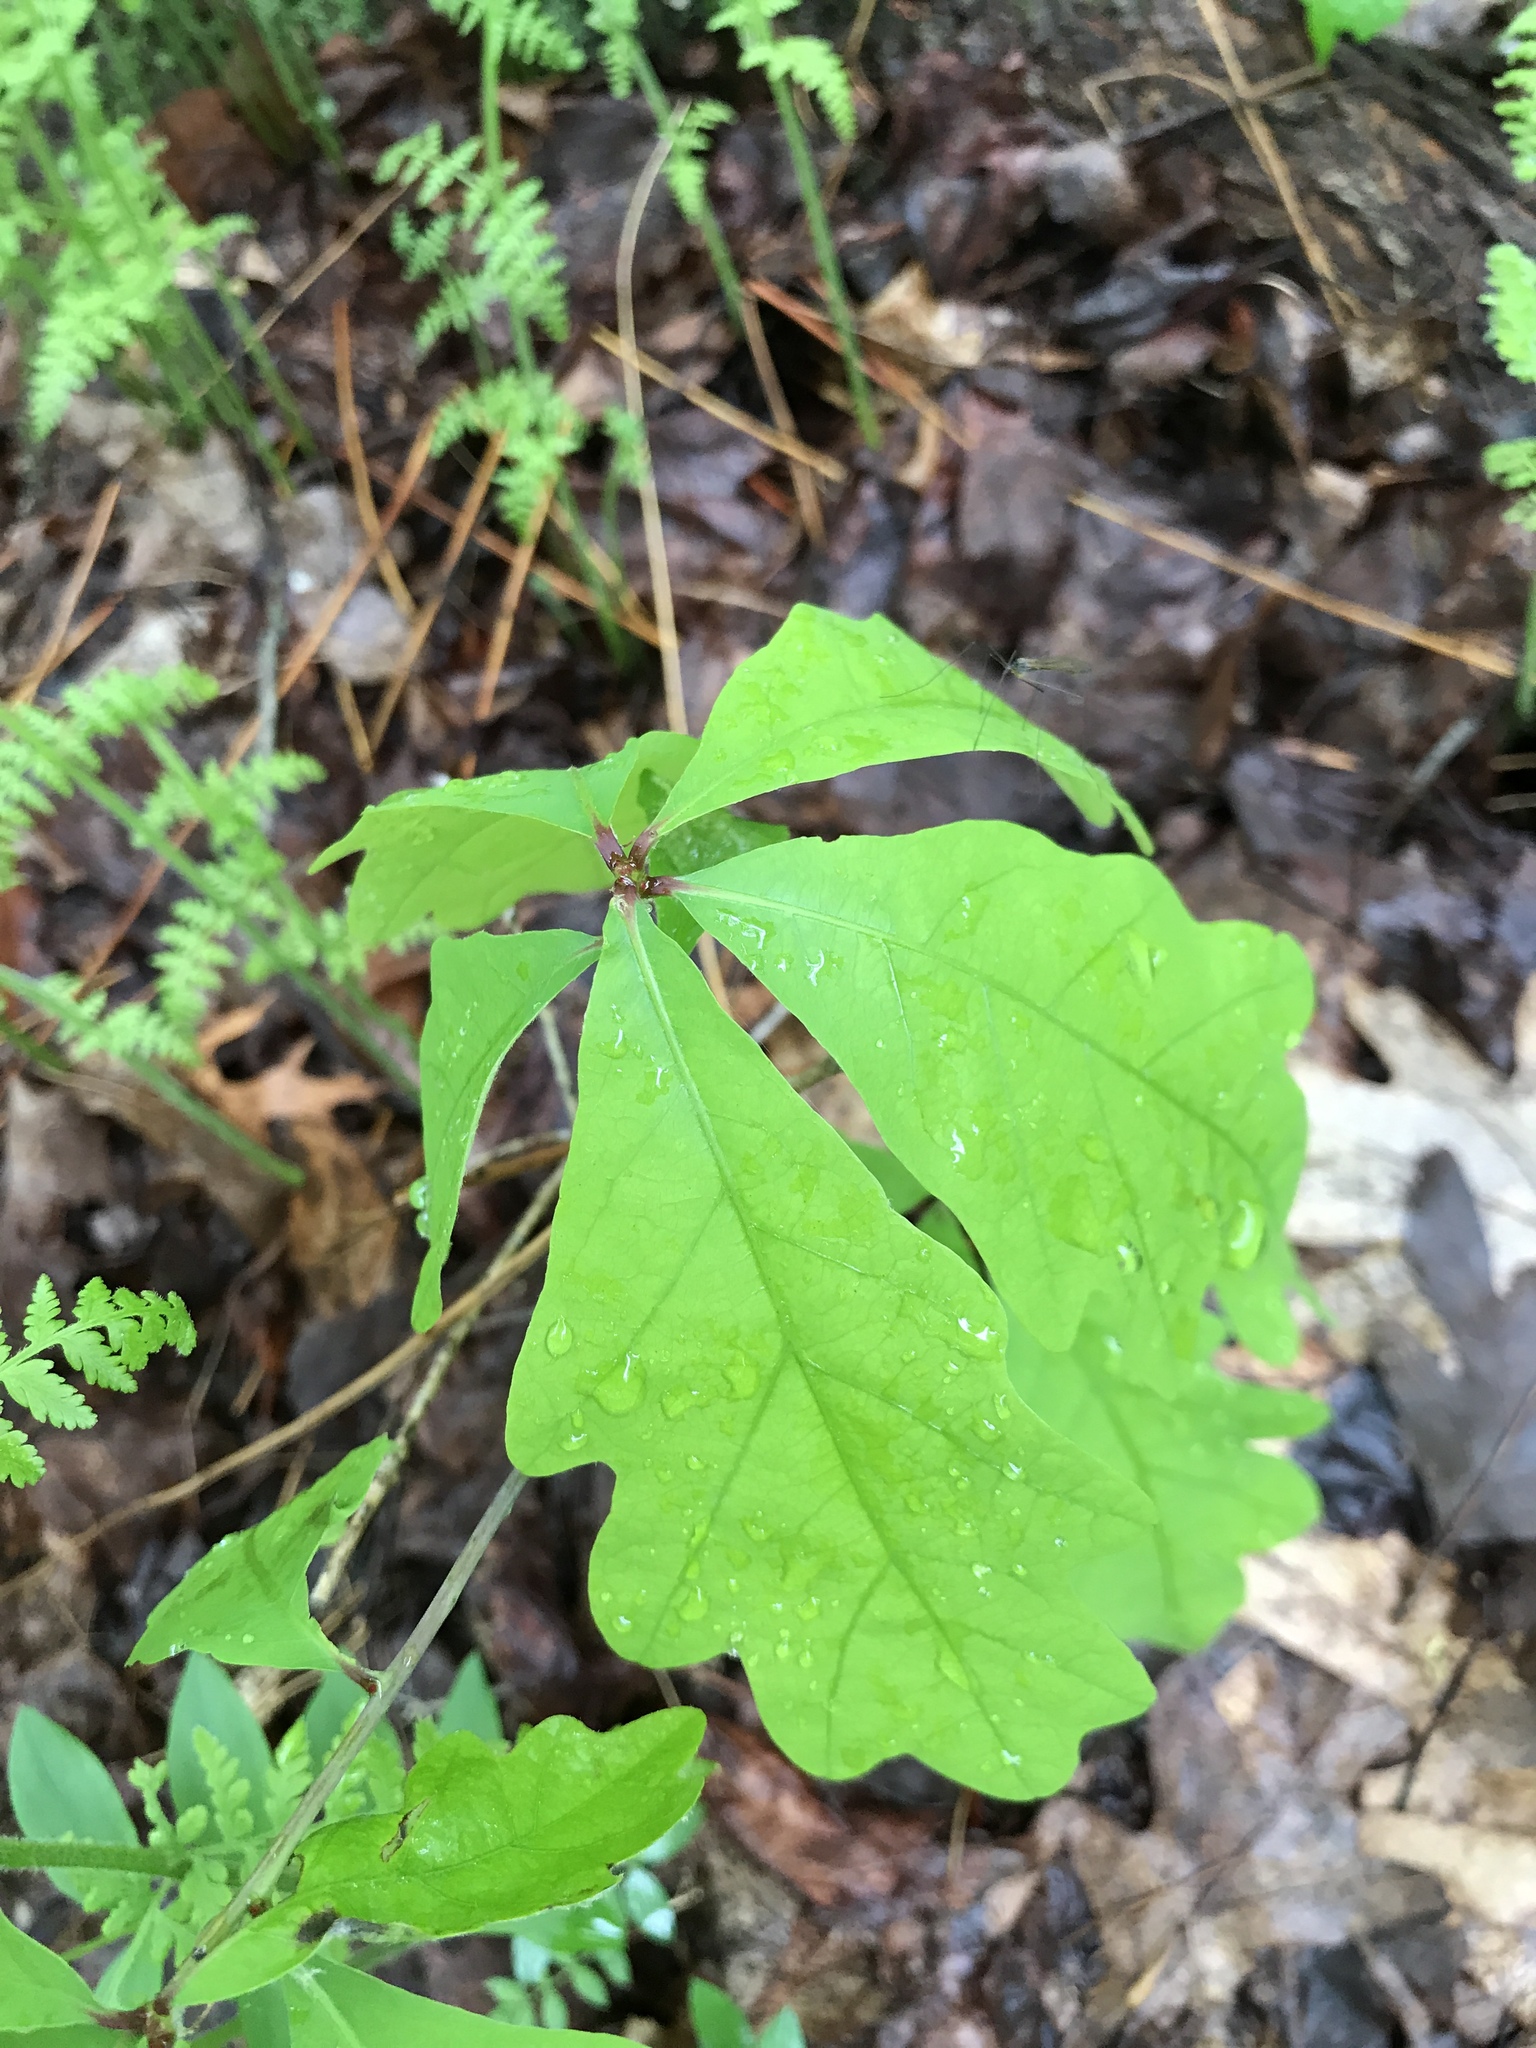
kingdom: Plantae
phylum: Tracheophyta
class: Magnoliopsida
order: Fagales
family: Fagaceae
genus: Quercus
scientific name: Quercus alba
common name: White oak
